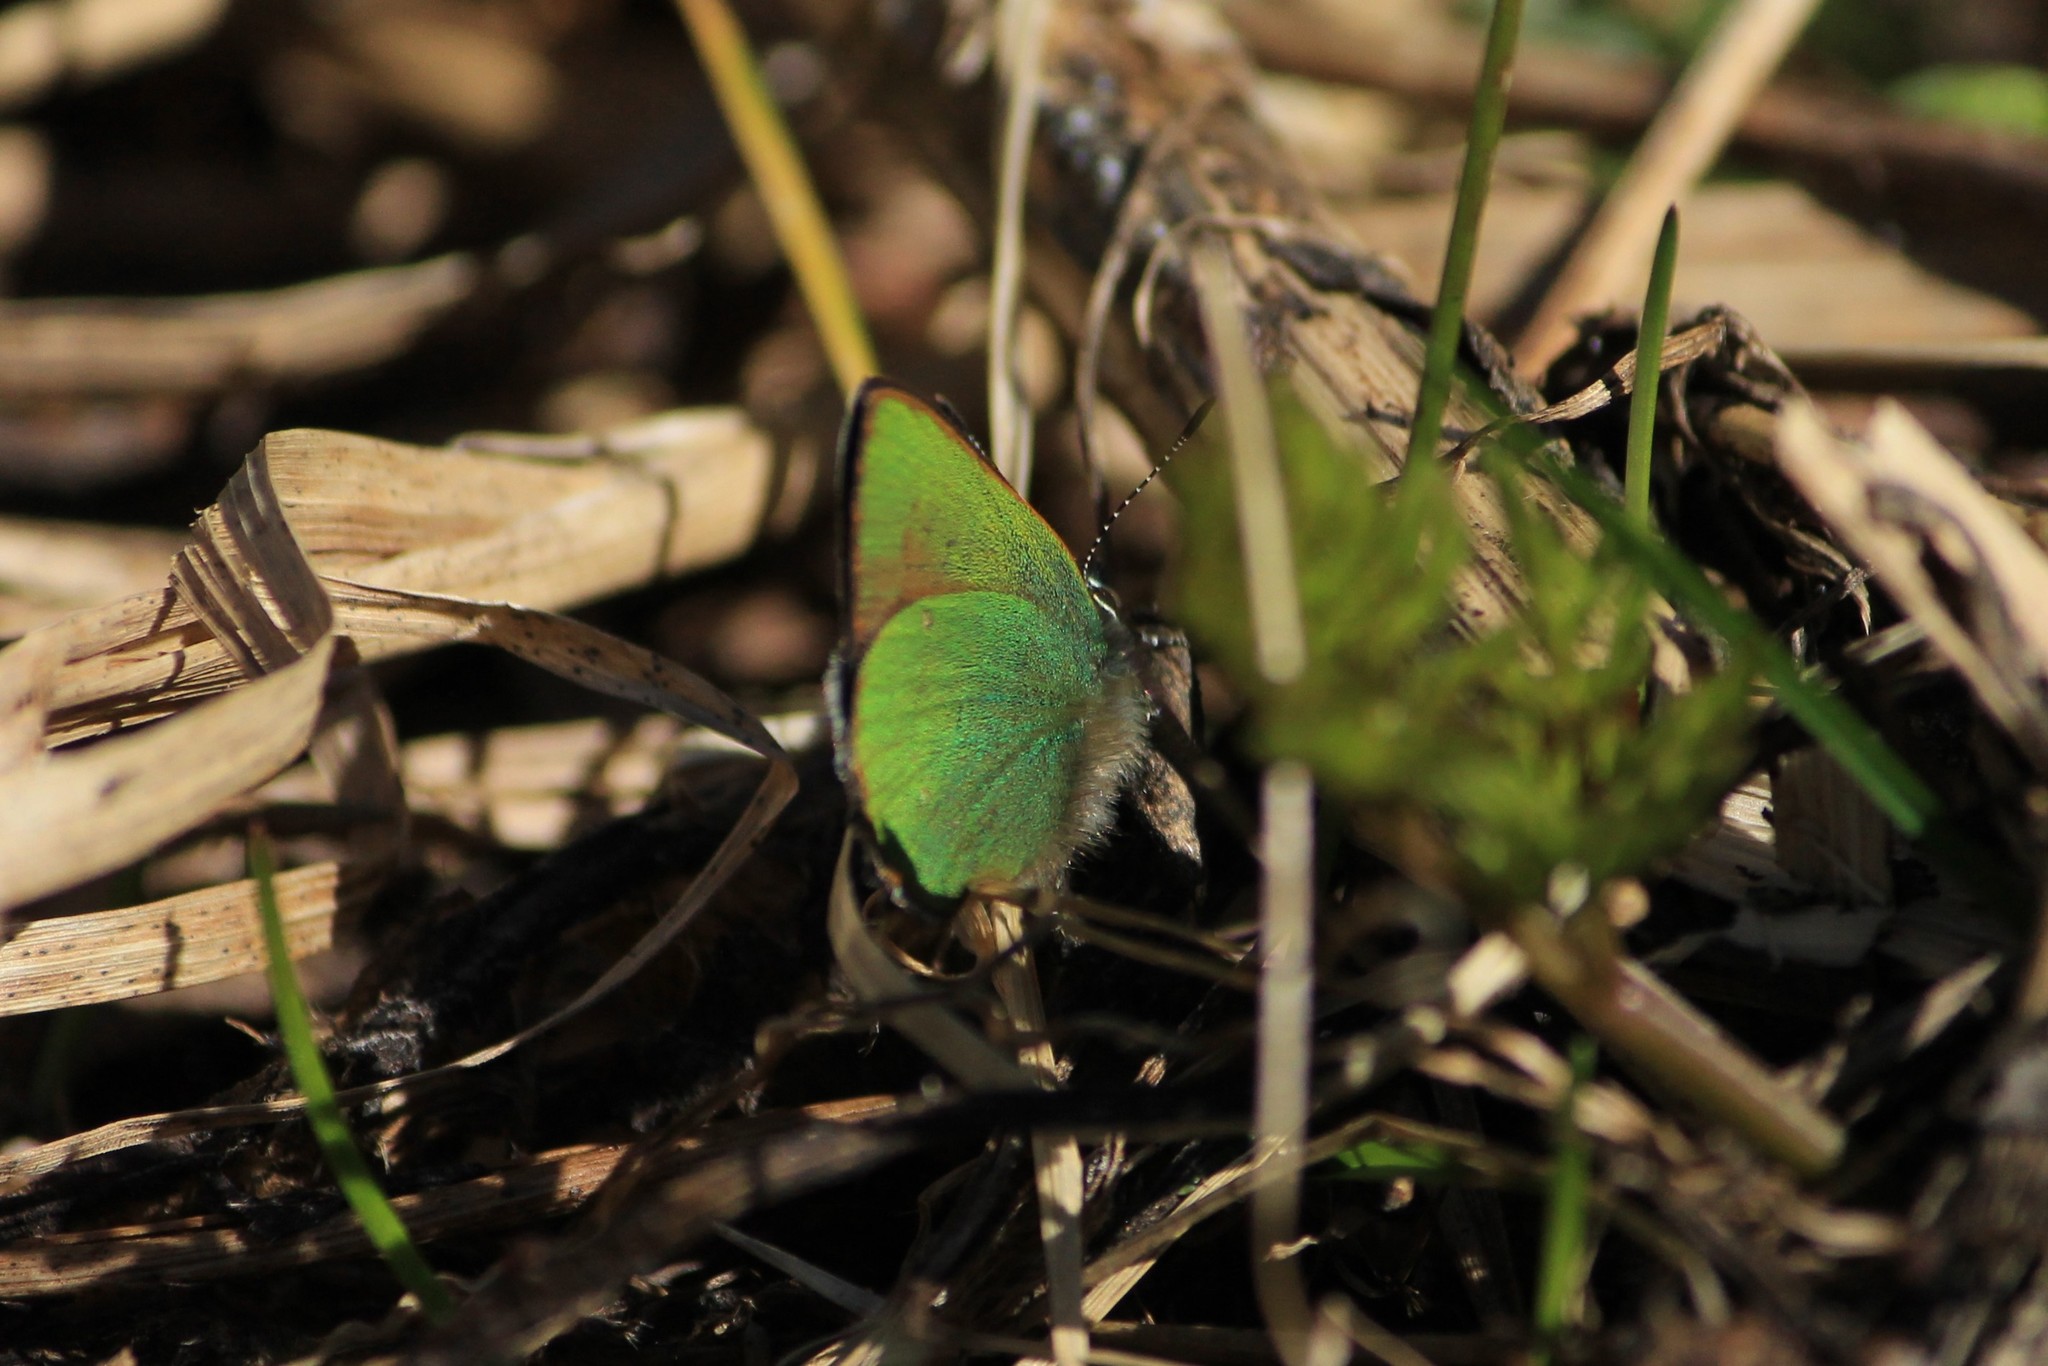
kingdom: Animalia
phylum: Arthropoda
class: Insecta
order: Lepidoptera
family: Lycaenidae
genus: Callophrys
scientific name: Callophrys rubi
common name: Green hairstreak
